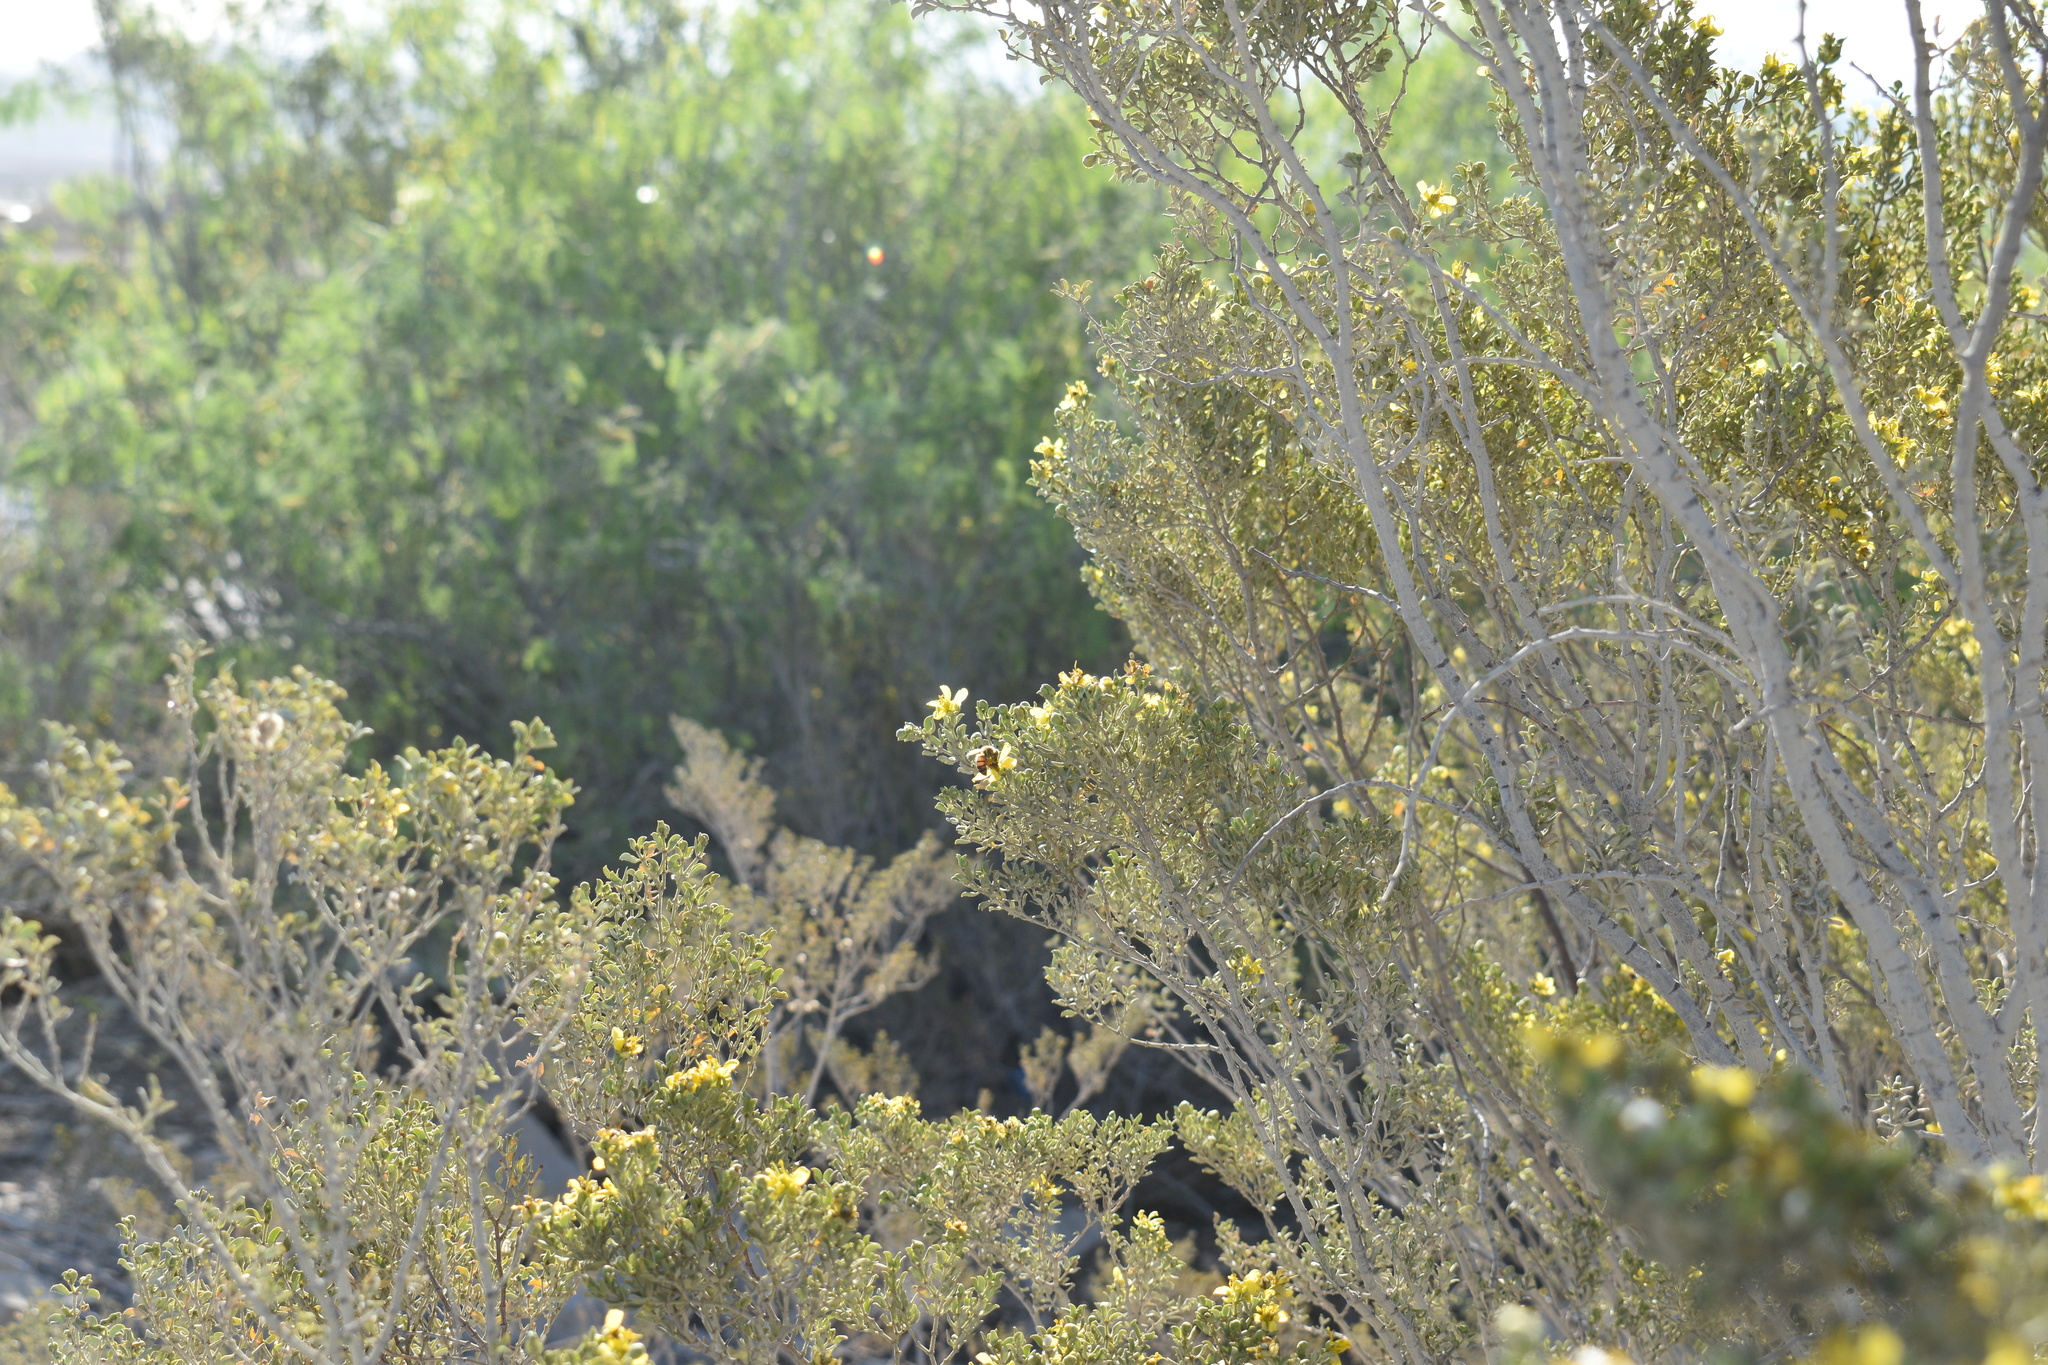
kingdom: Plantae
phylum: Tracheophyta
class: Magnoliopsida
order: Zygophyllales
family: Zygophyllaceae
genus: Larrea
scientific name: Larrea tridentata
